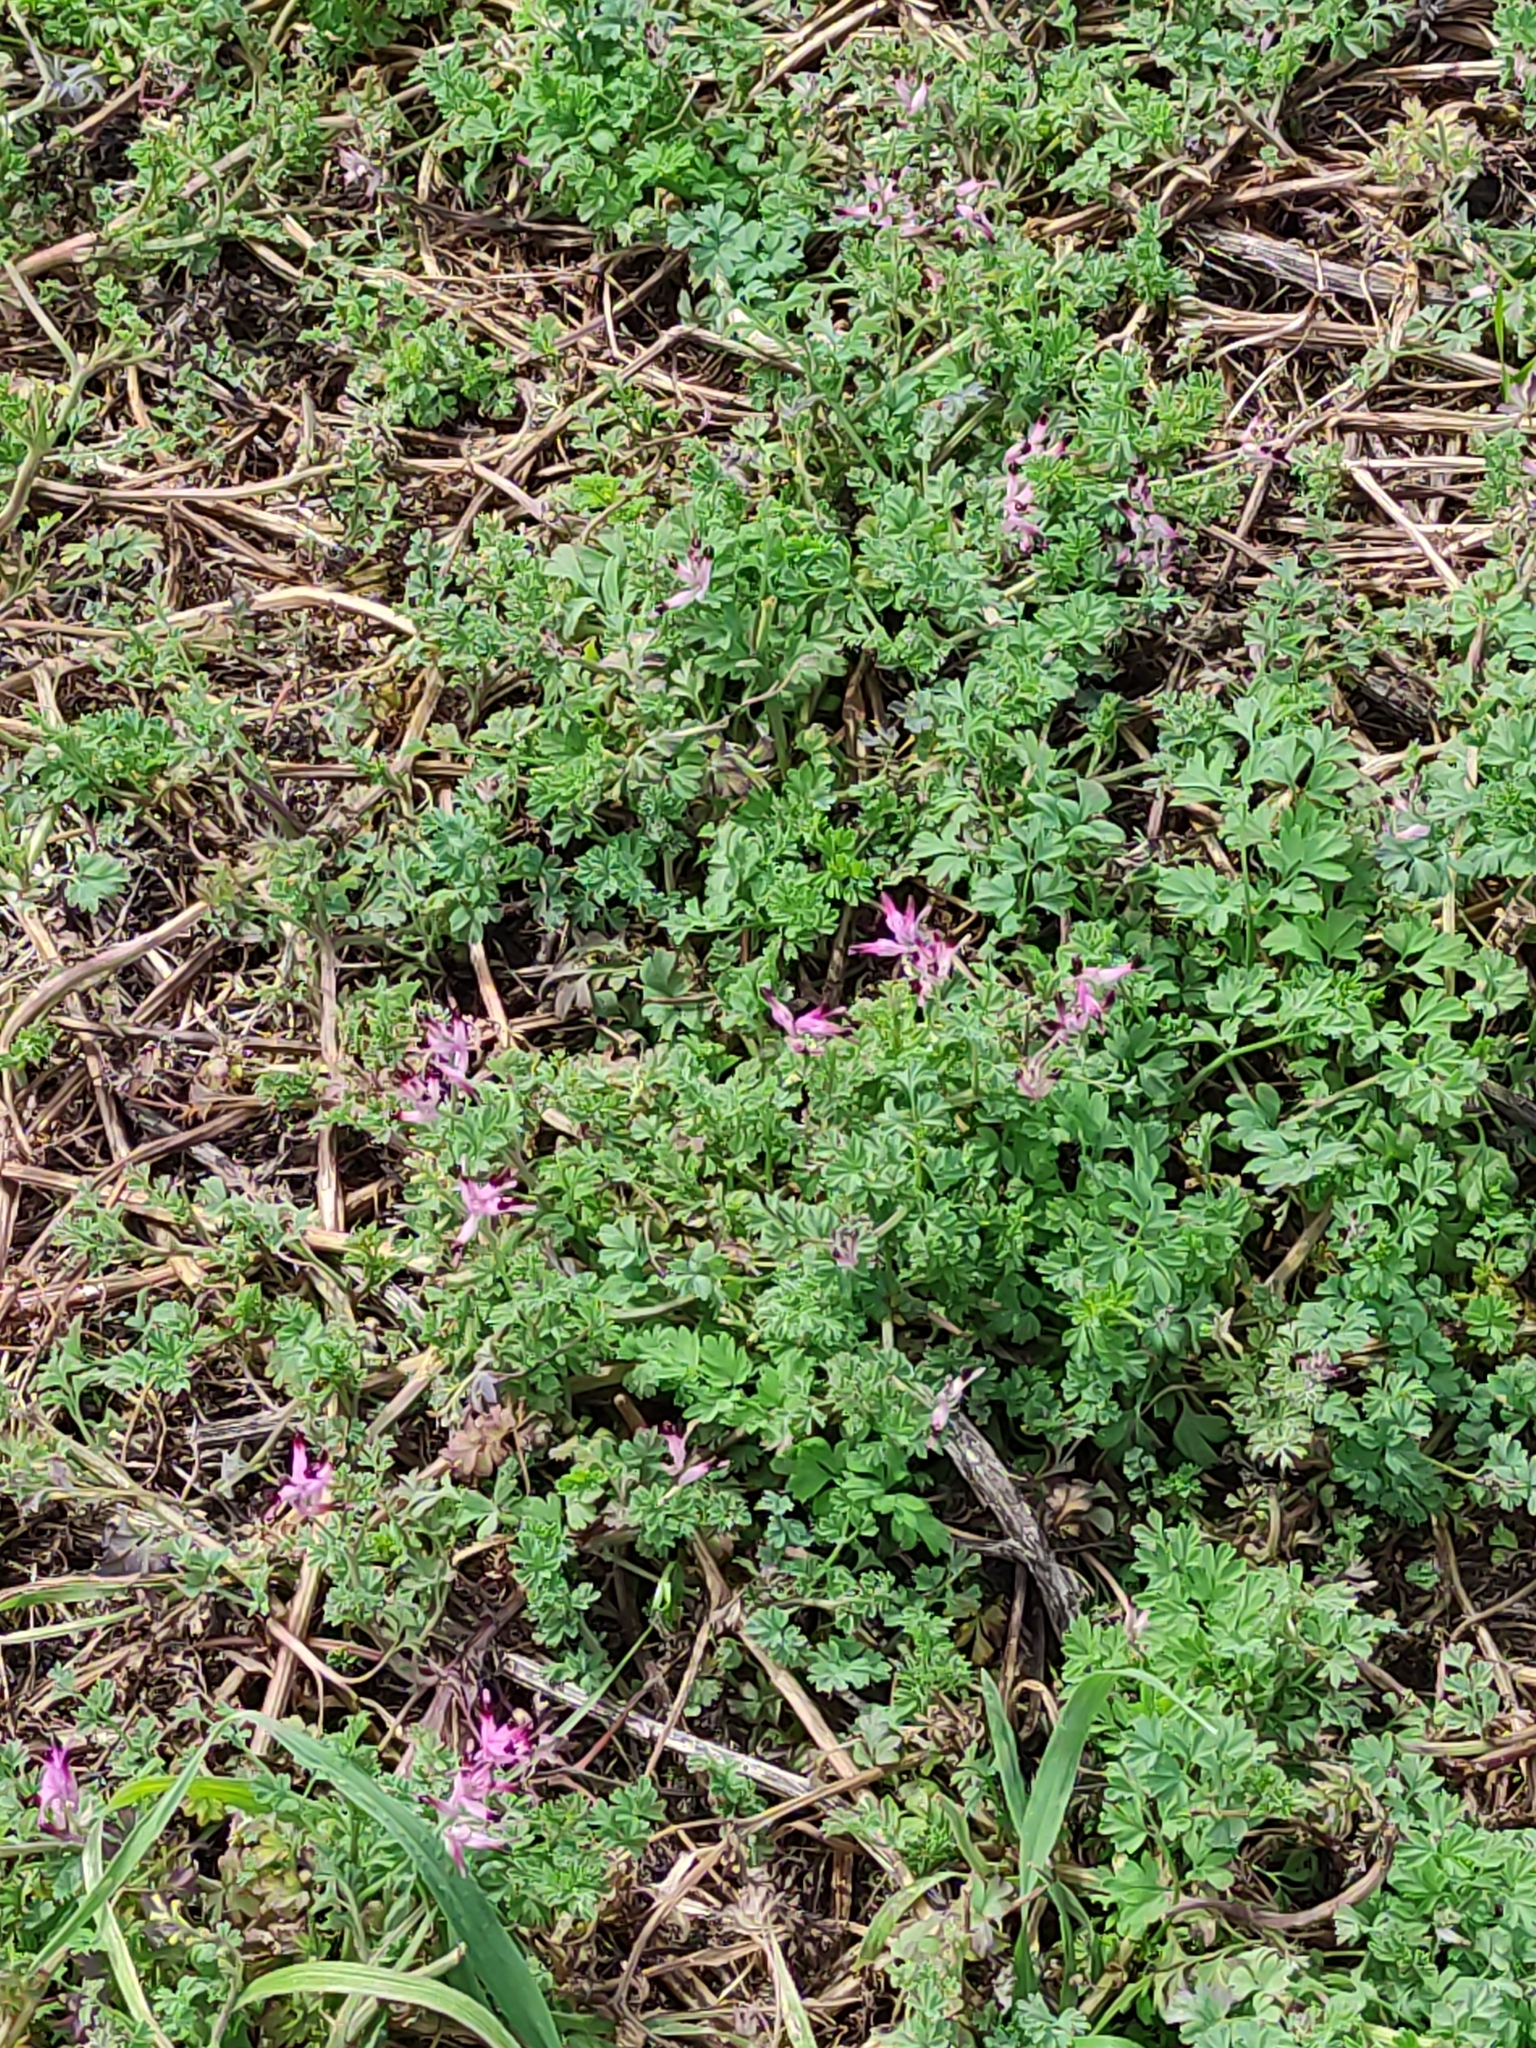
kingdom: Plantae
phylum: Tracheophyta
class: Magnoliopsida
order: Ranunculales
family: Papaveraceae
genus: Fumaria
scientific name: Fumaria muralis
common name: Common ramping-fumitory
